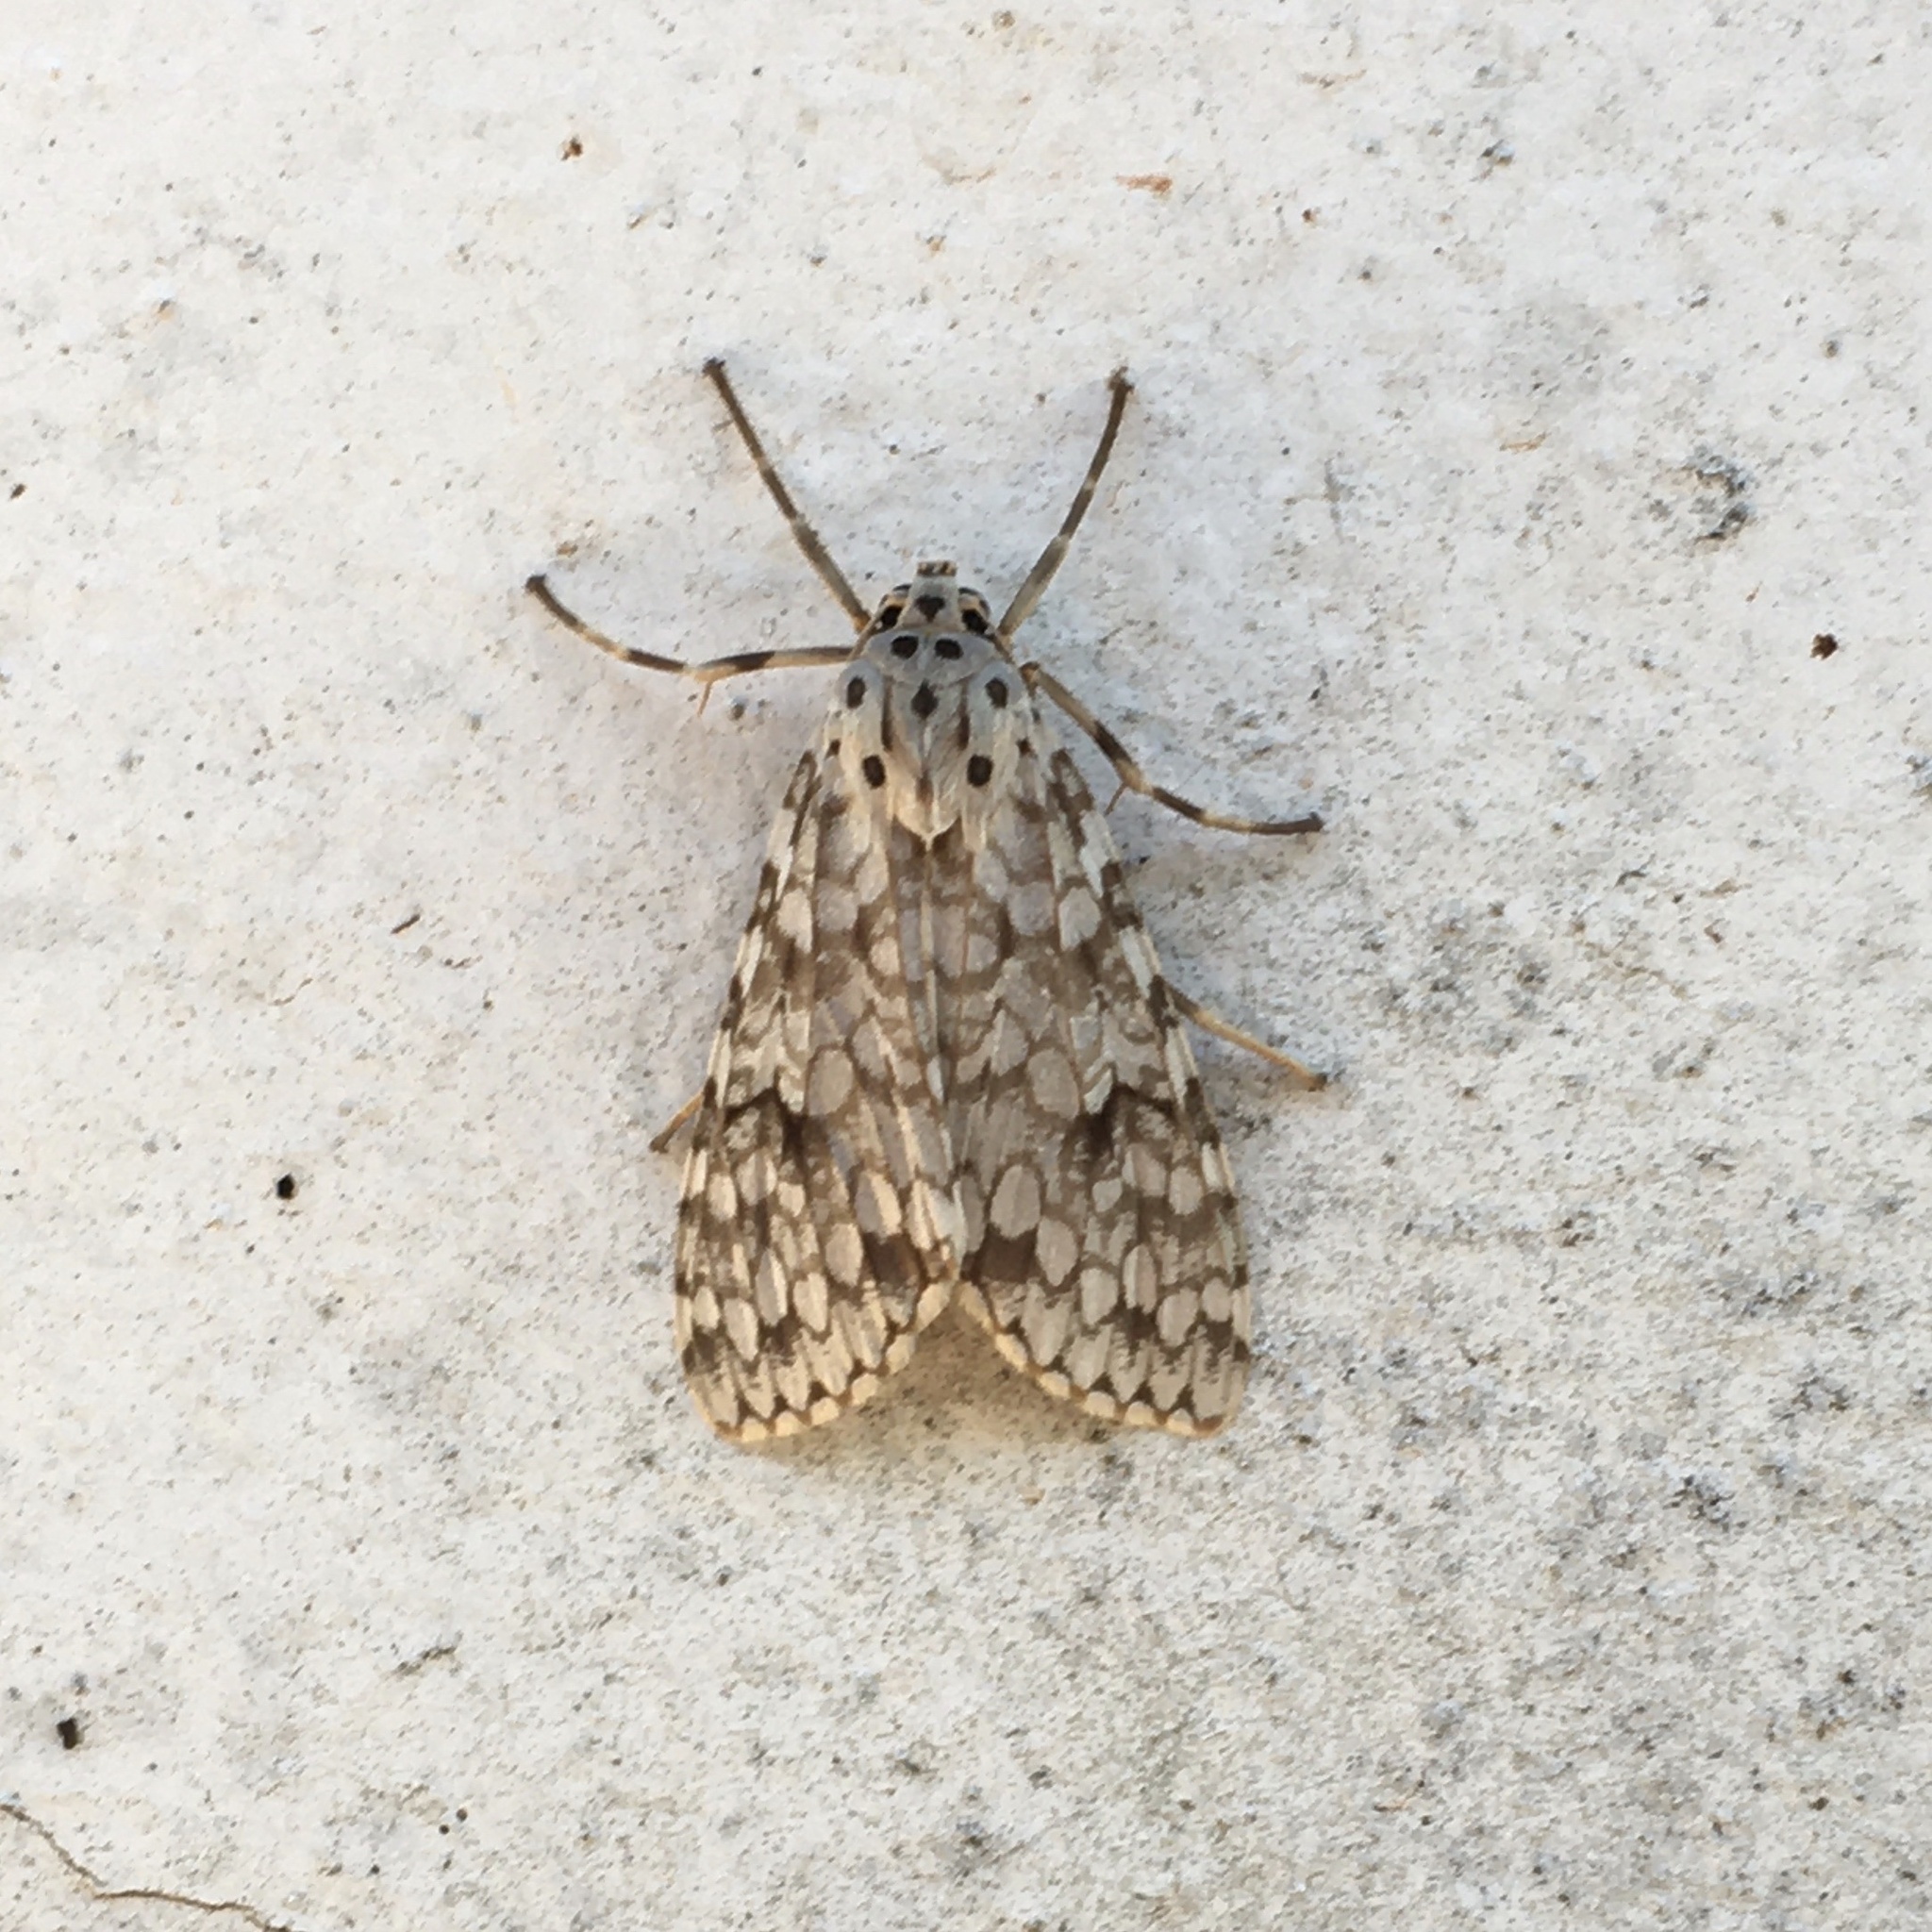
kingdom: Animalia
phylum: Arthropoda
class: Insecta
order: Lepidoptera
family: Erebidae
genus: Carales
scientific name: Carales astur
